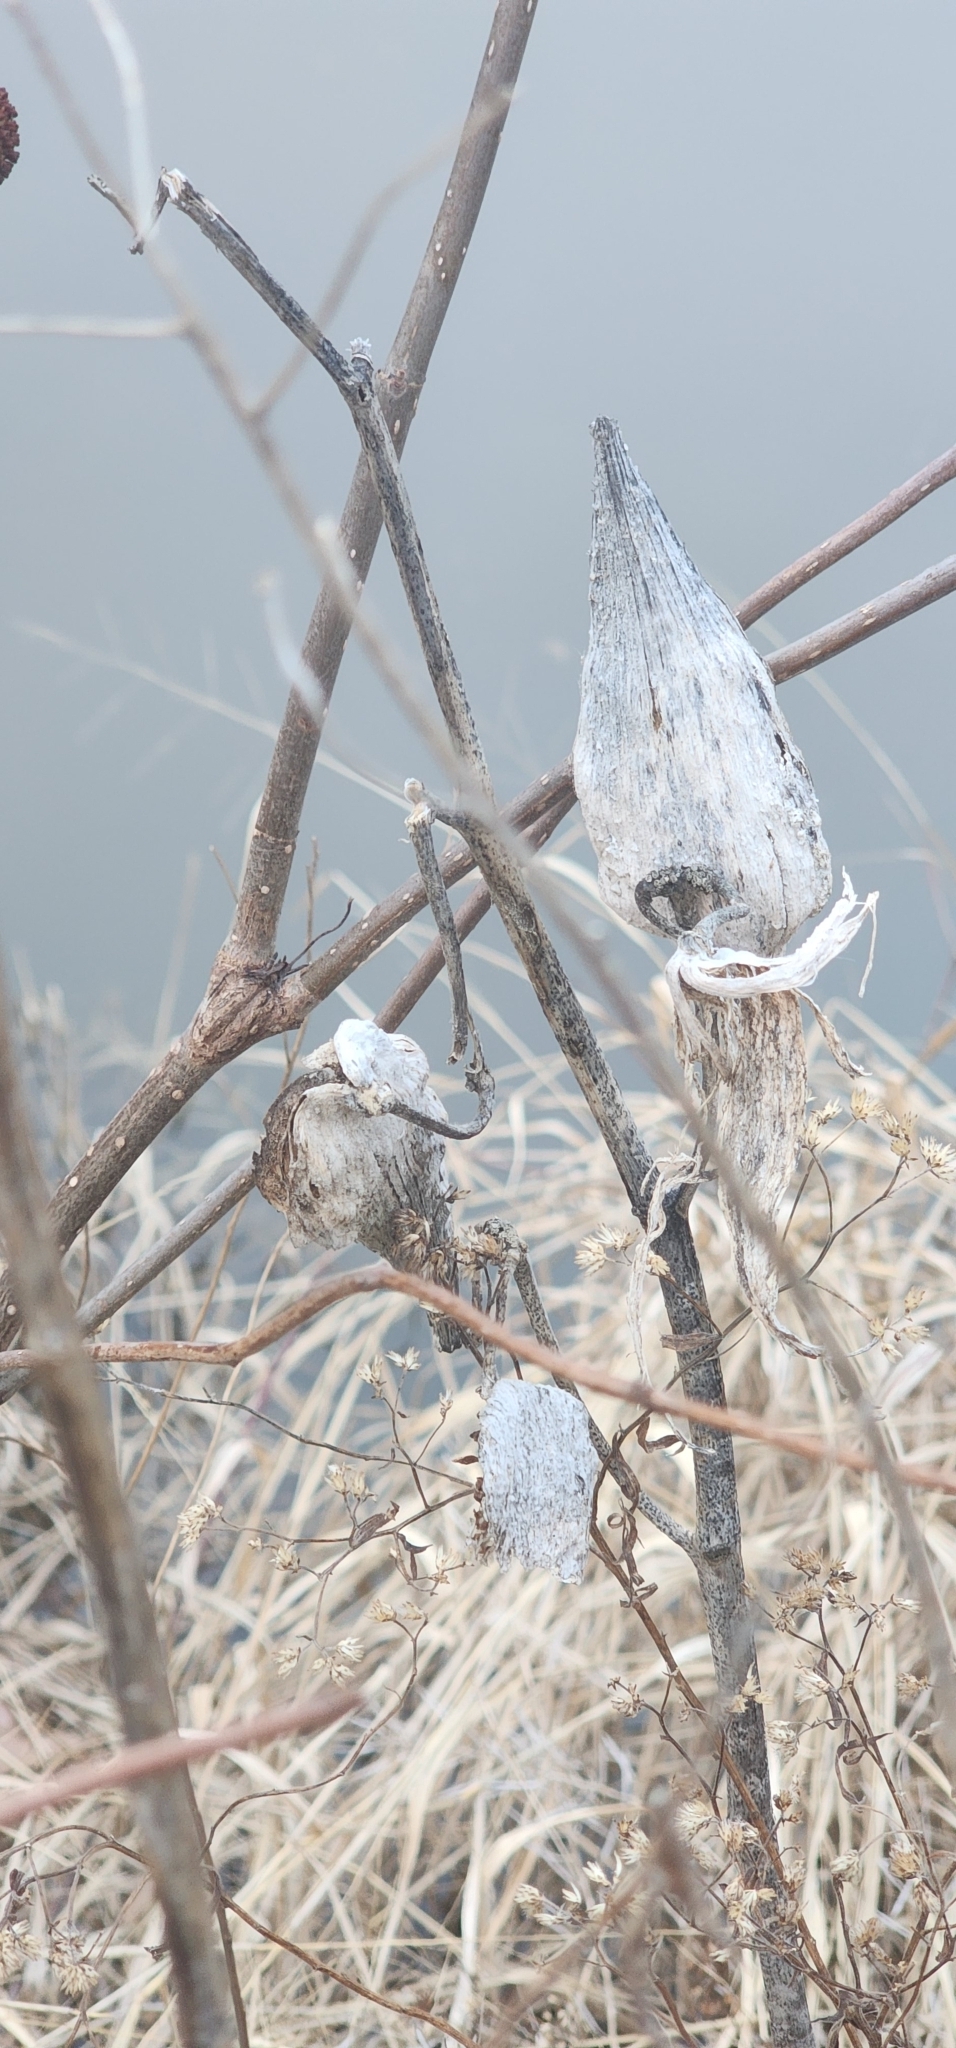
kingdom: Plantae
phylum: Tracheophyta
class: Magnoliopsida
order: Gentianales
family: Apocynaceae
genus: Asclepias
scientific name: Asclepias syriaca
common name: Common milkweed
